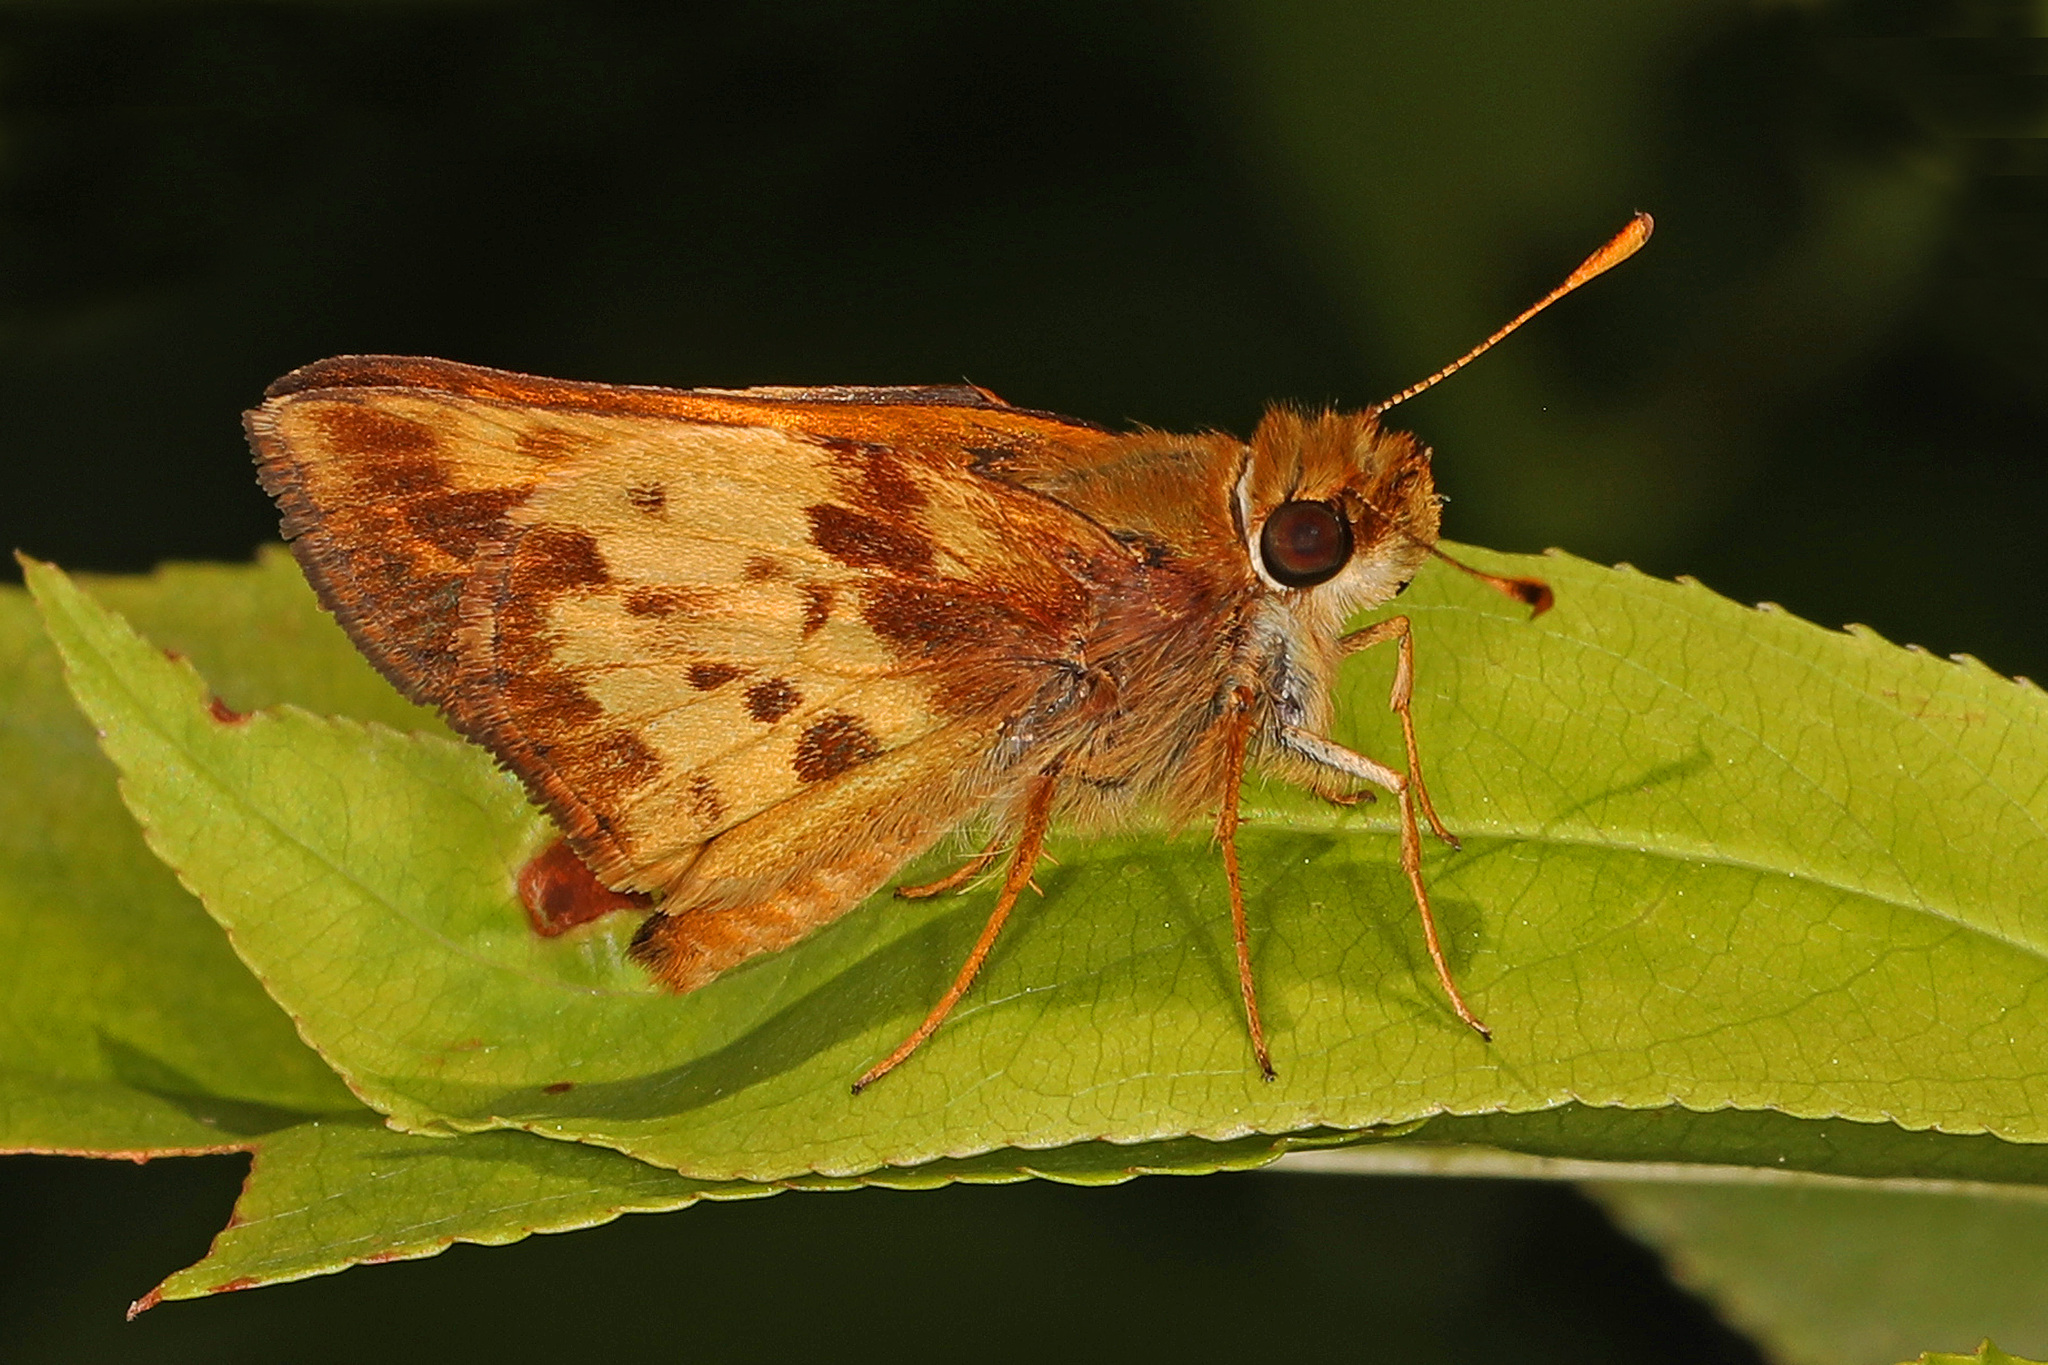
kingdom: Animalia
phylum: Arthropoda
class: Insecta
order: Lepidoptera
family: Hesperiidae
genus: Lon
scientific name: Lon zabulon
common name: Zabulon skipper
